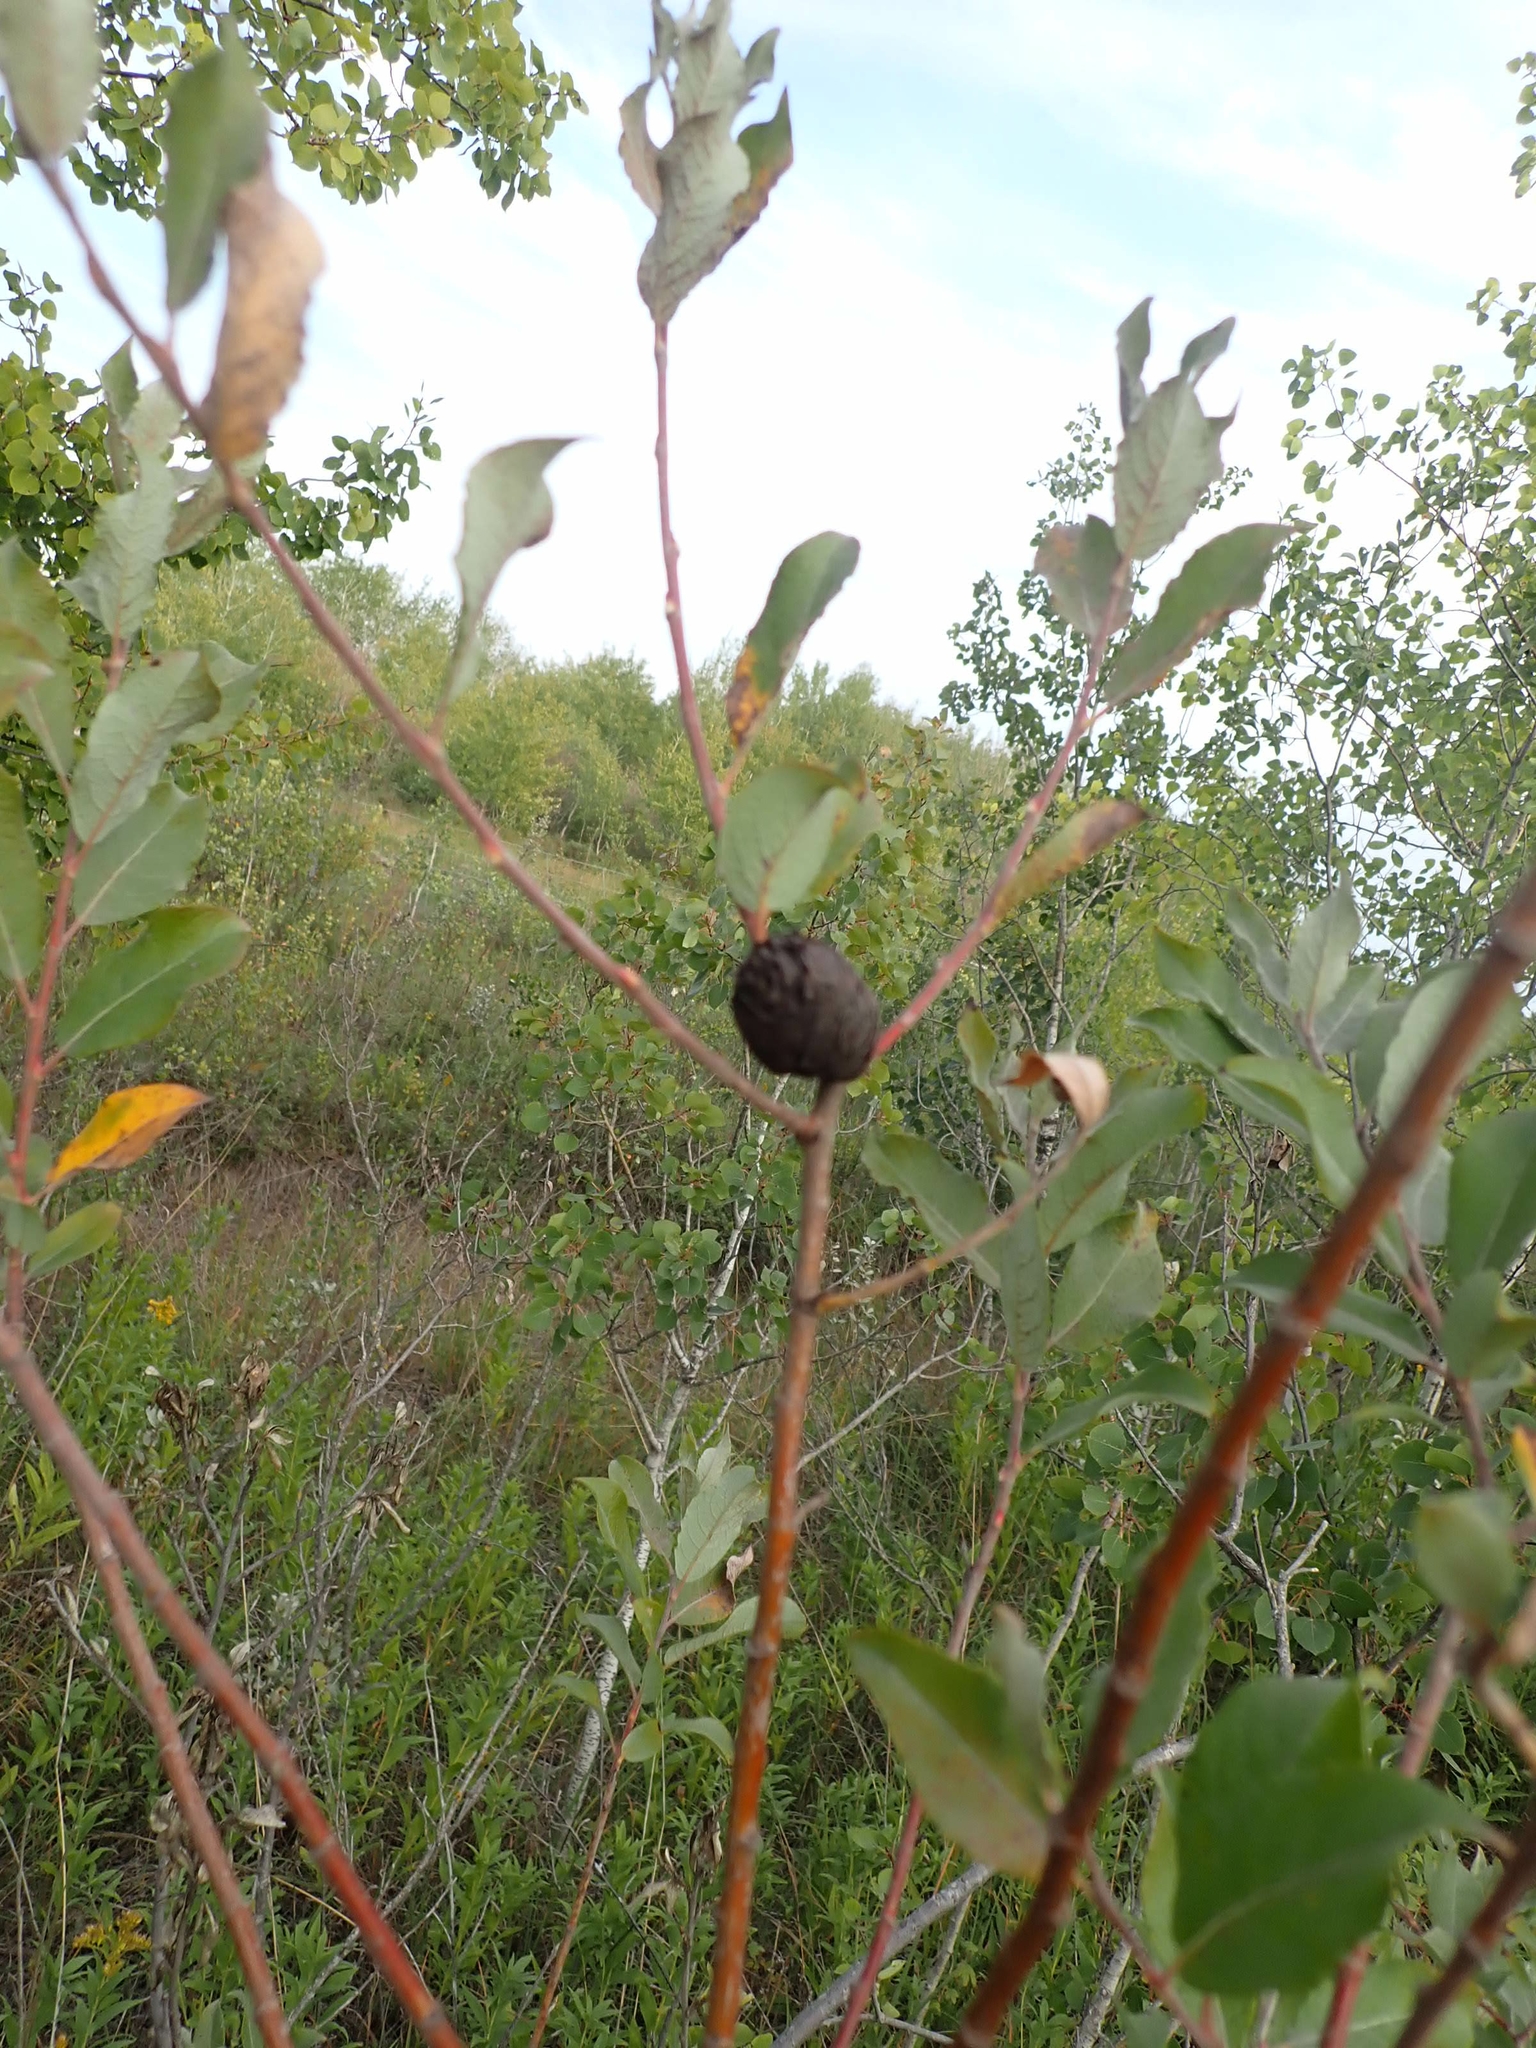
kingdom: Animalia
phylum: Arthropoda
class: Insecta
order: Diptera
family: Cecidomyiidae
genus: Rabdophaga
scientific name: Rabdophaga strobiloides
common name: Willow pinecone gall midge
